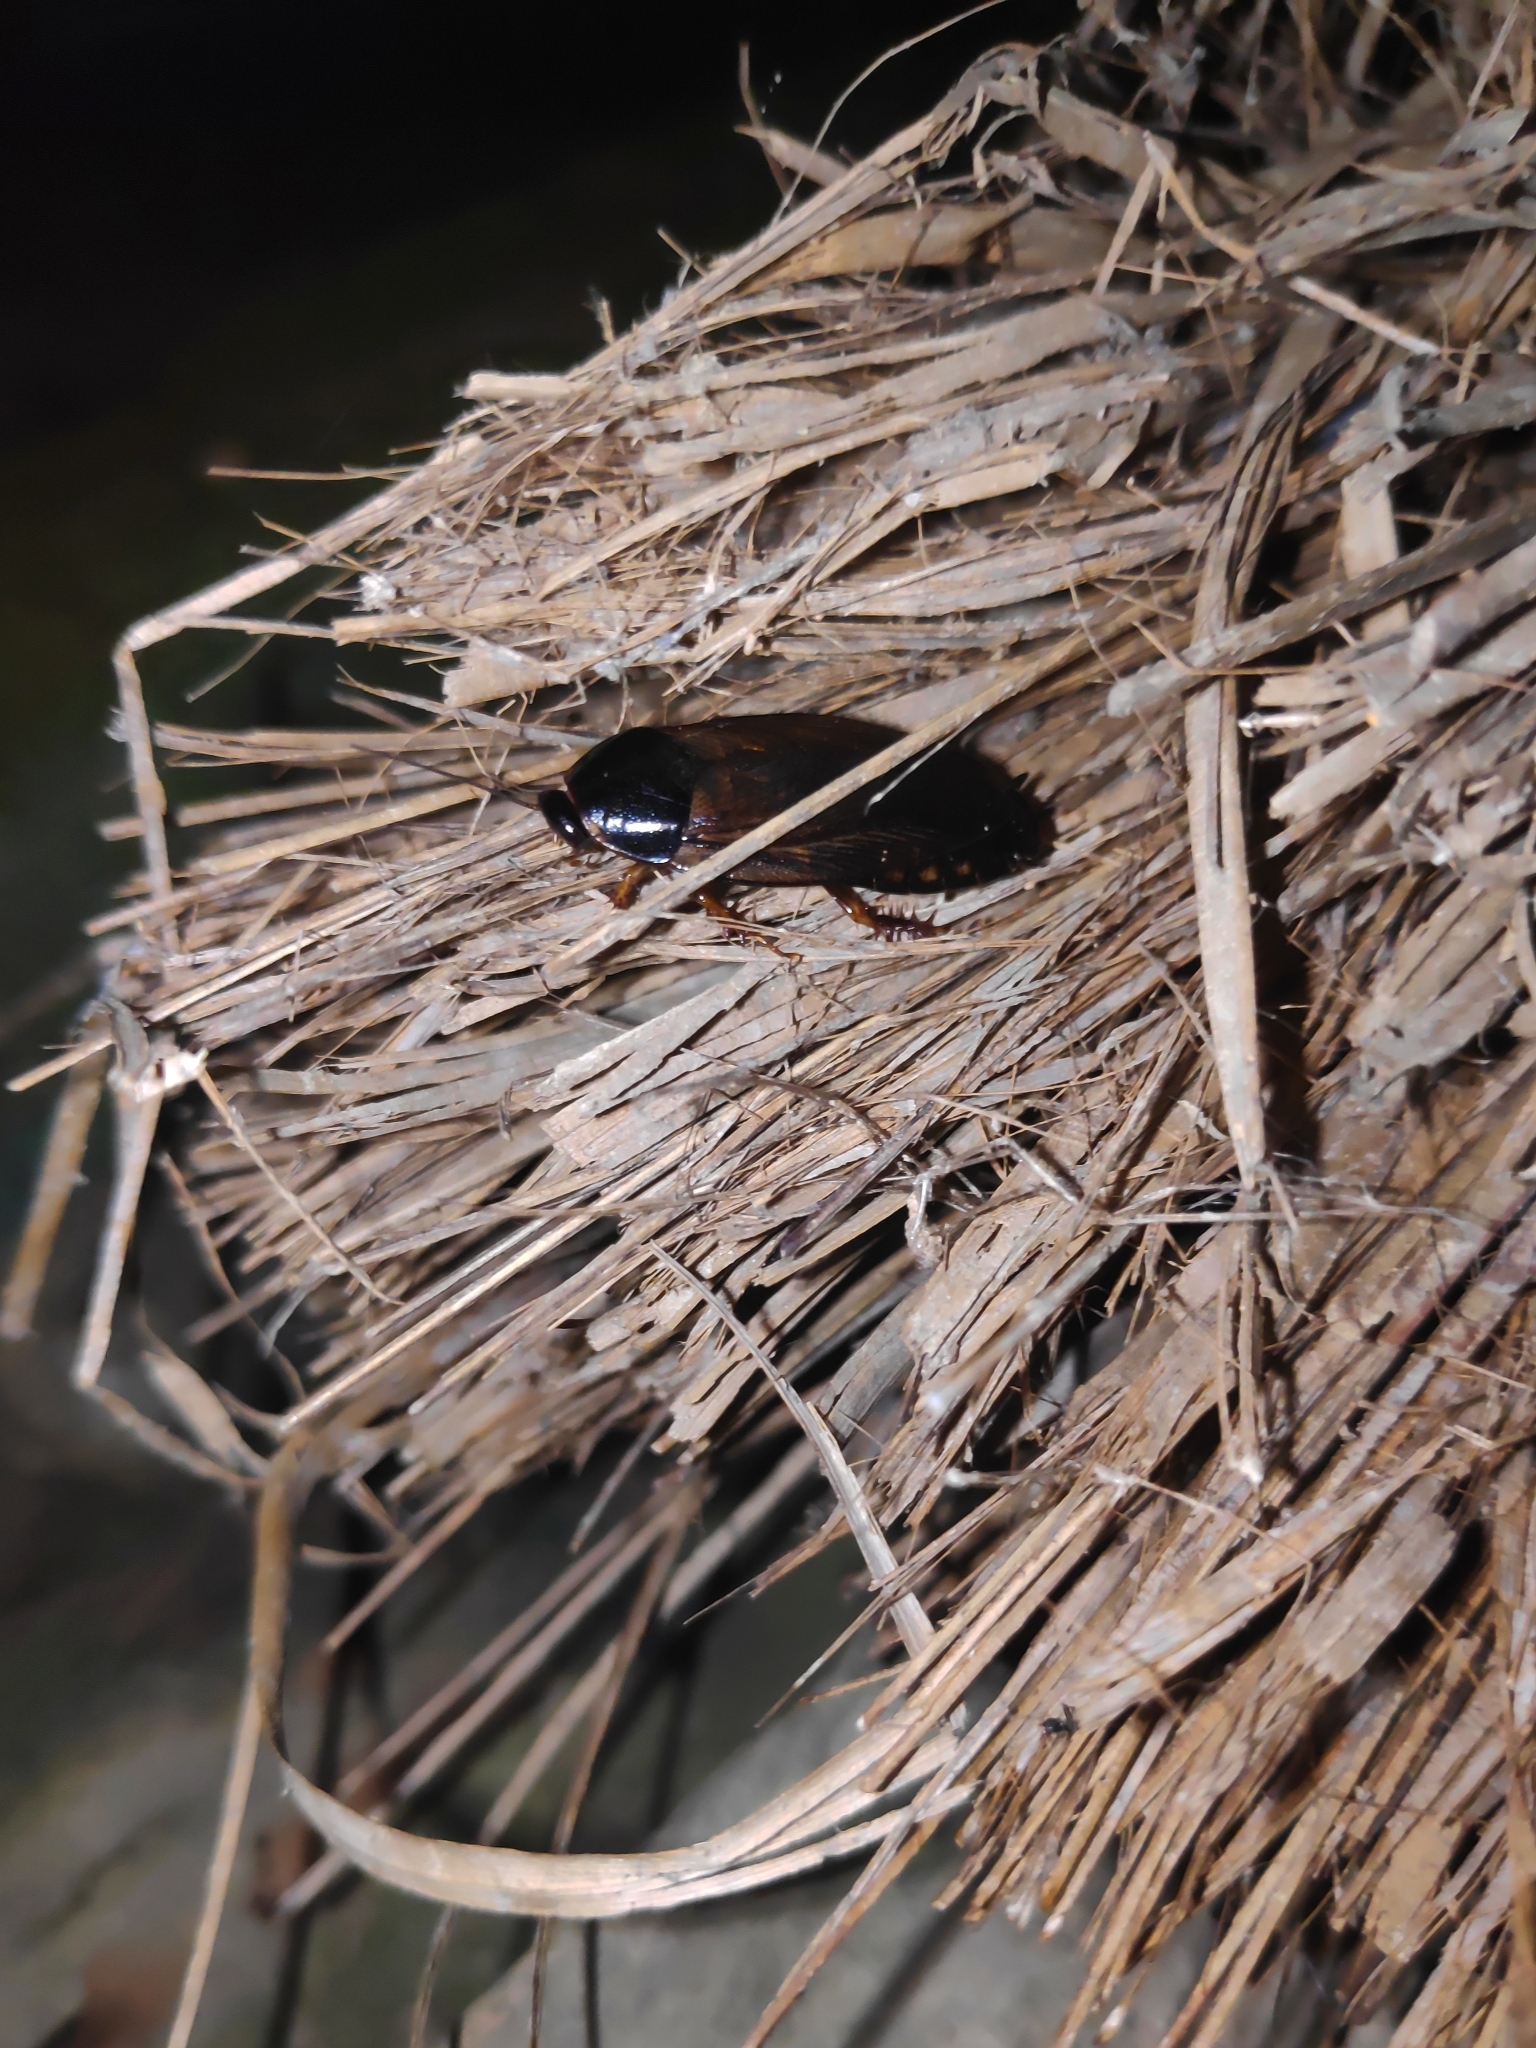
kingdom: Animalia
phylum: Arthropoda
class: Insecta
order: Blattodea
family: Blaberidae
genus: Pycnoscelus
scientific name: Pycnoscelus surinamensis
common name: Surinam cockroach
